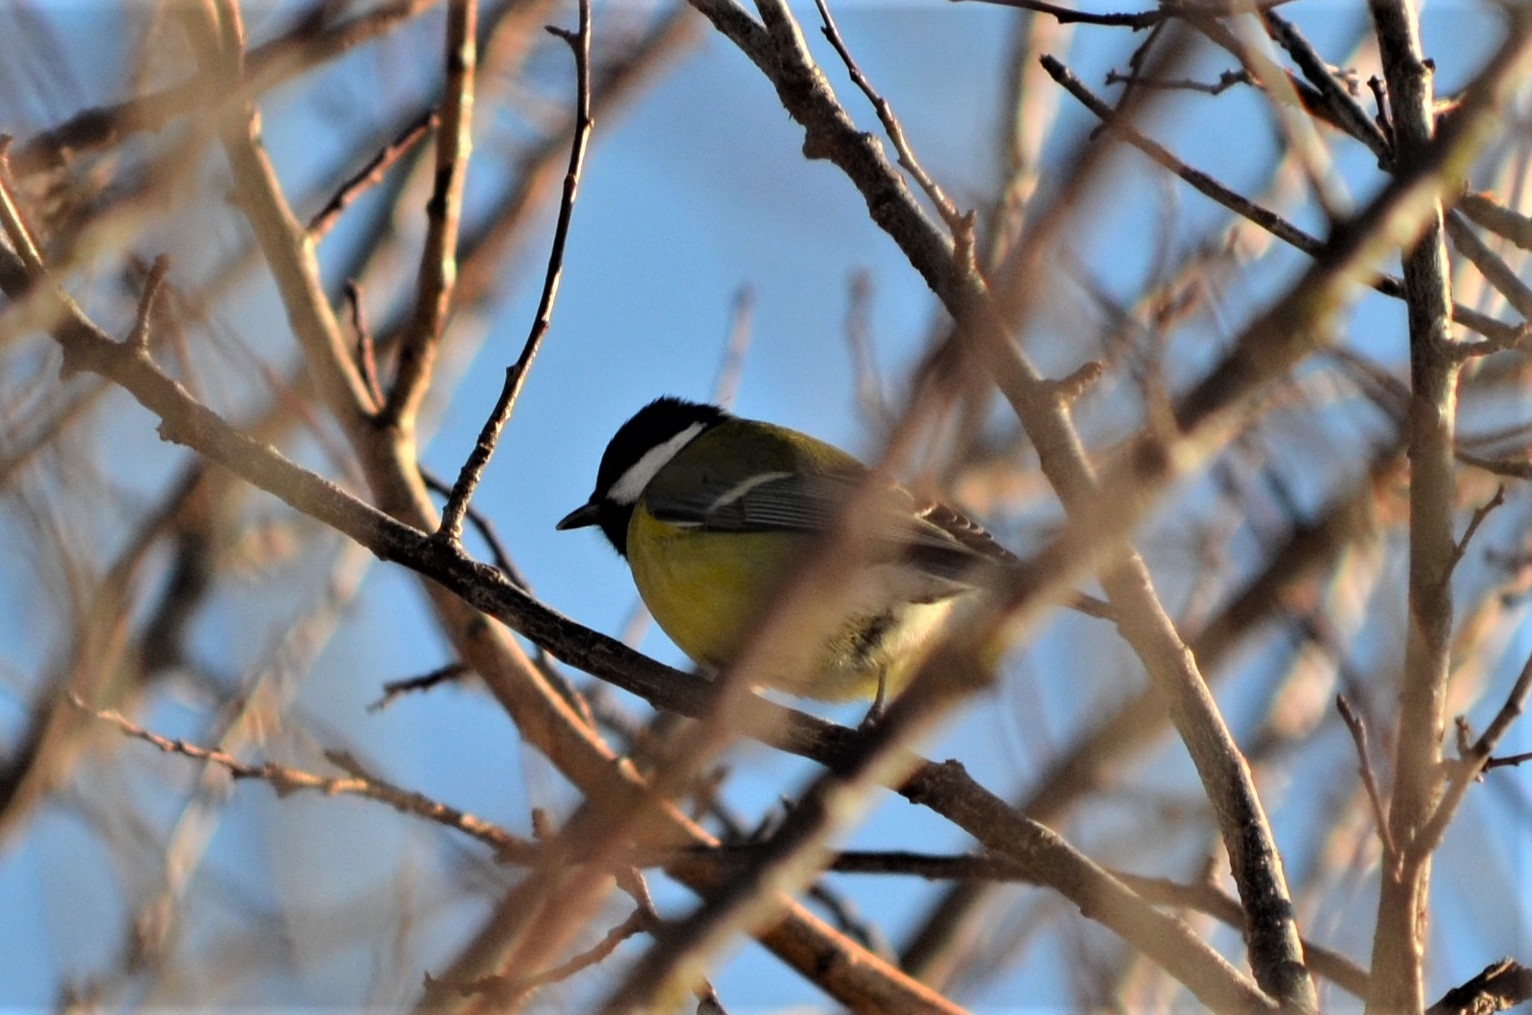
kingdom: Animalia
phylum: Chordata
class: Aves
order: Passeriformes
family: Paridae
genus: Parus
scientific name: Parus major
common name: Great tit
